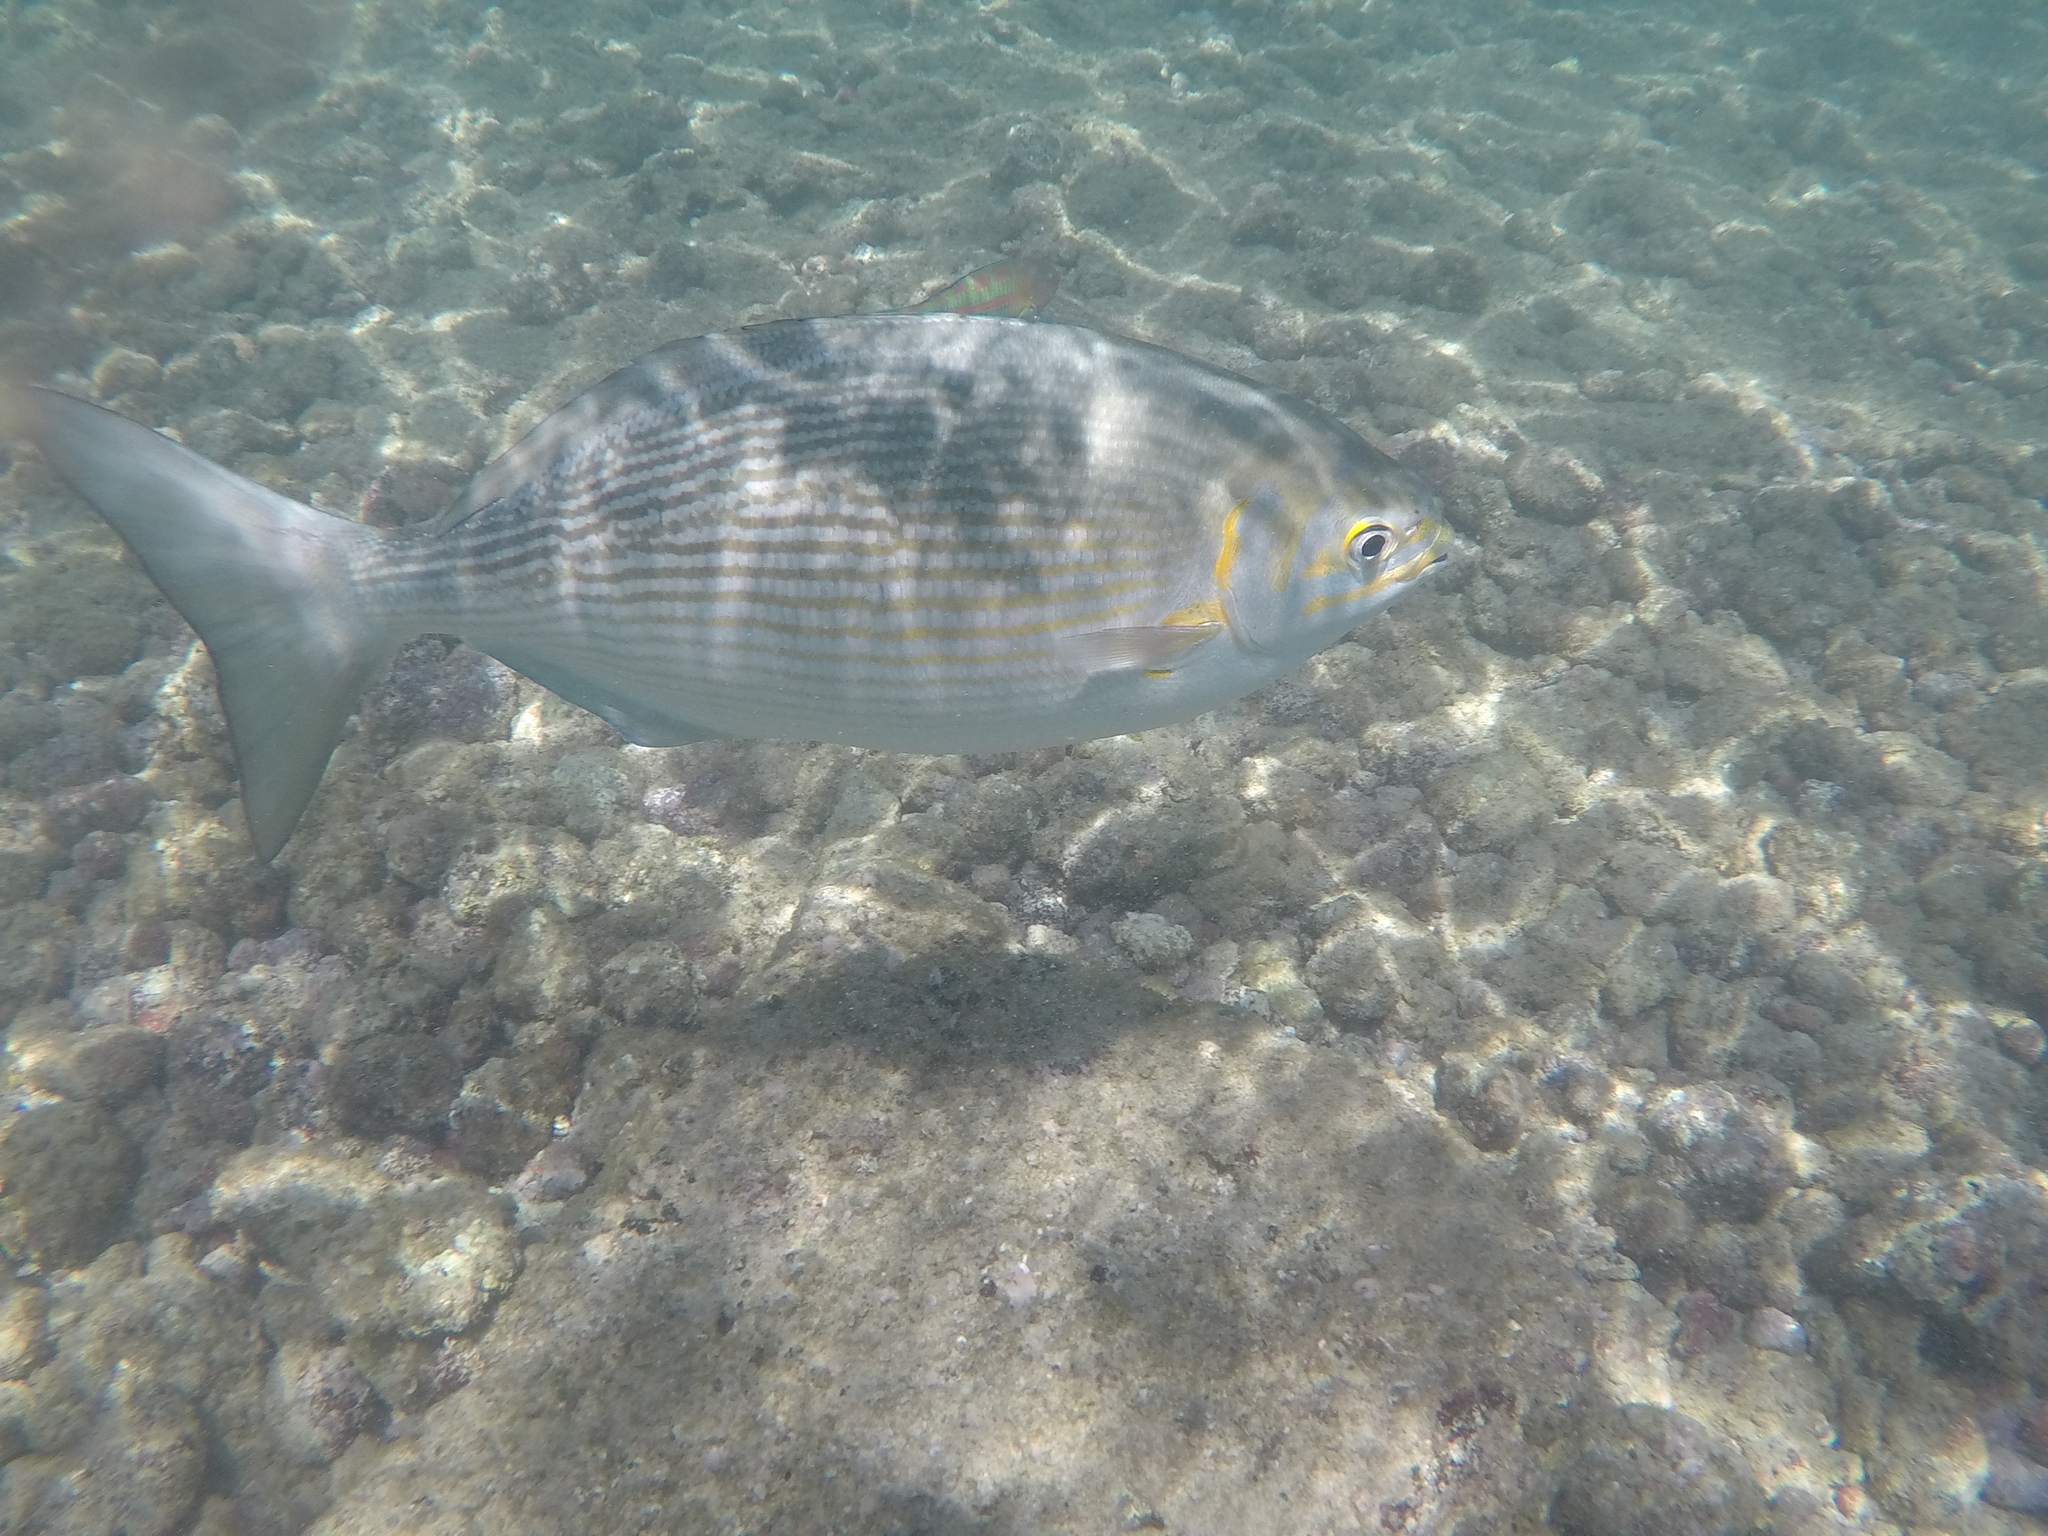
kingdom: Animalia
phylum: Chordata
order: Perciformes
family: Kyphosidae
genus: Kyphosus
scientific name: Kyphosus vaigiensis
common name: Brassy chub
